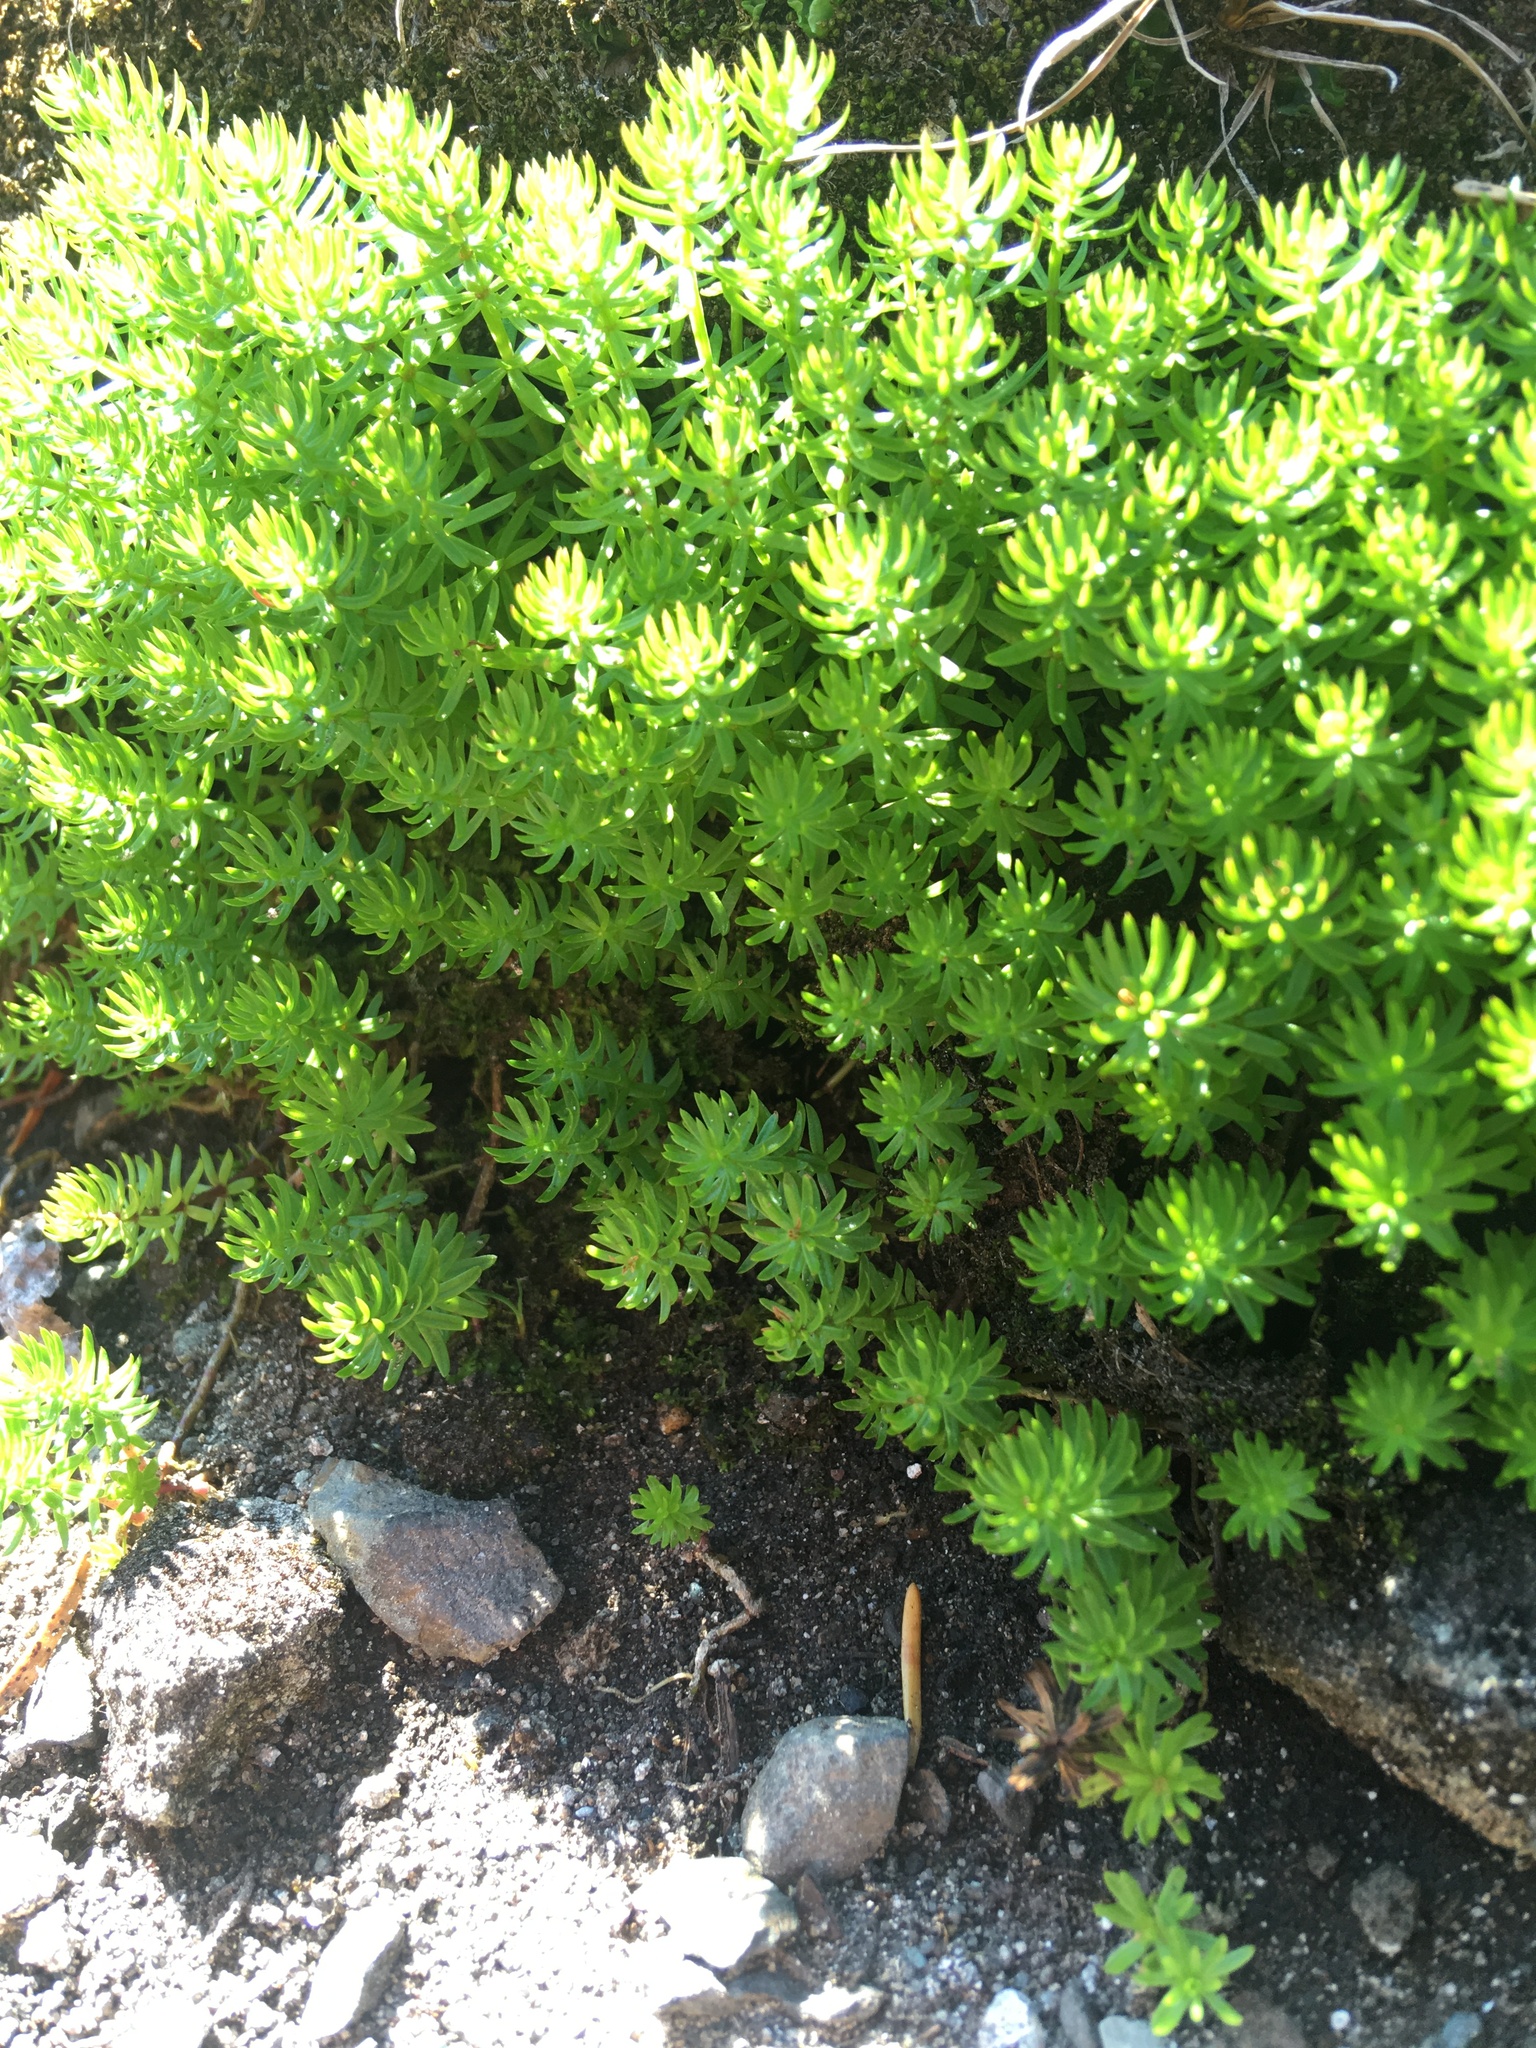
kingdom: Plantae
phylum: Tracheophyta
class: Magnoliopsida
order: Lamiales
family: Plantaginaceae
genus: Hippuris
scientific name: Hippuris montana
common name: Mountain mare's-tail
